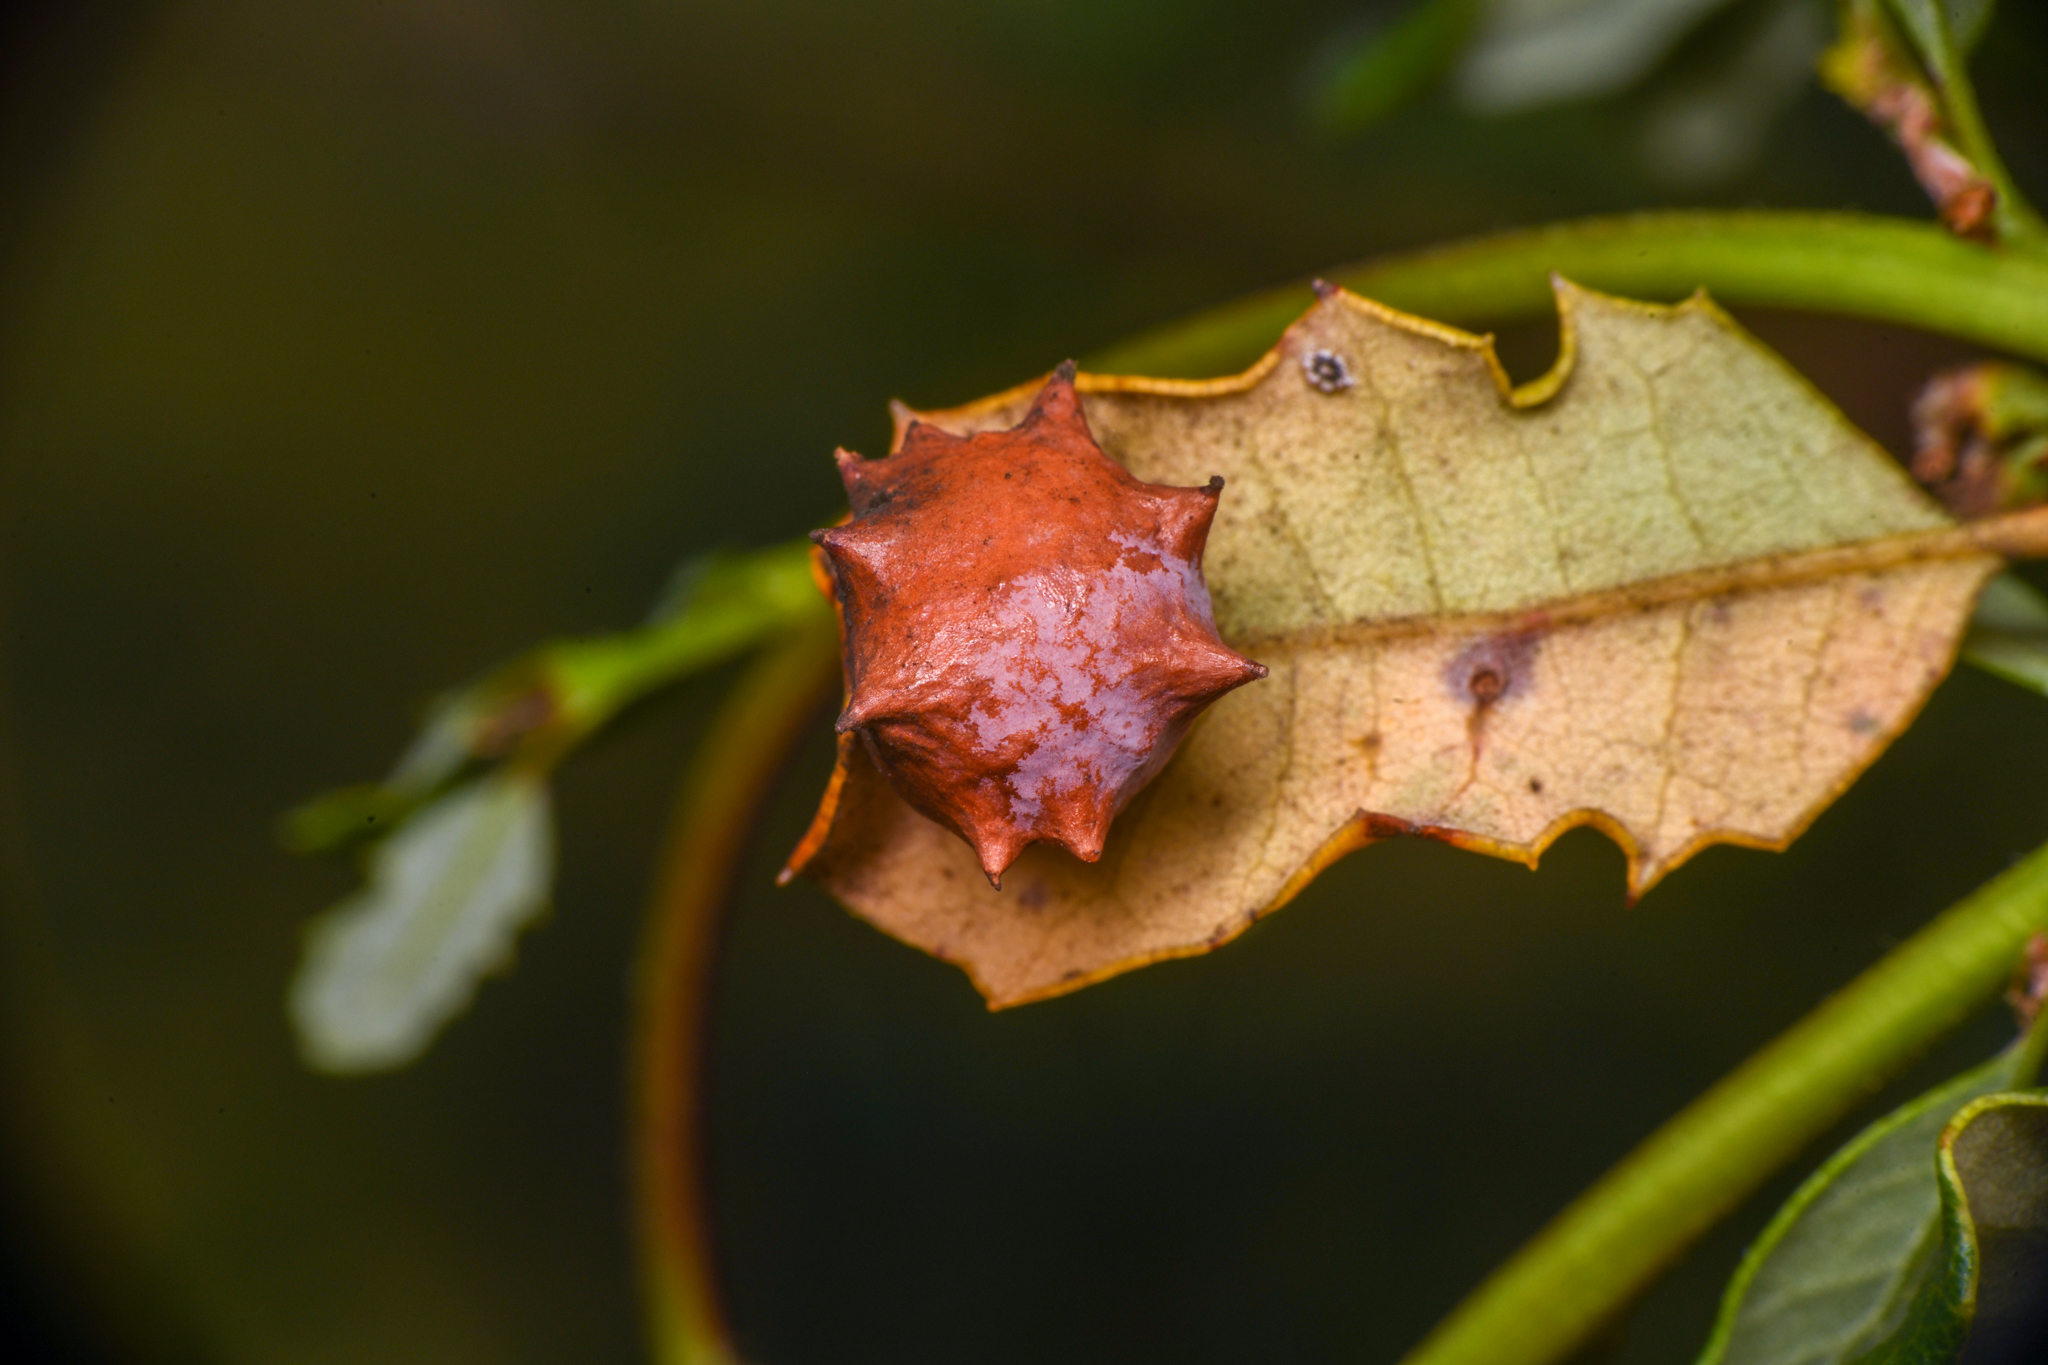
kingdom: Animalia
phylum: Arthropoda
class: Insecta
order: Hymenoptera
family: Cynipidae
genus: Cynips
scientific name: Cynips douglasi
